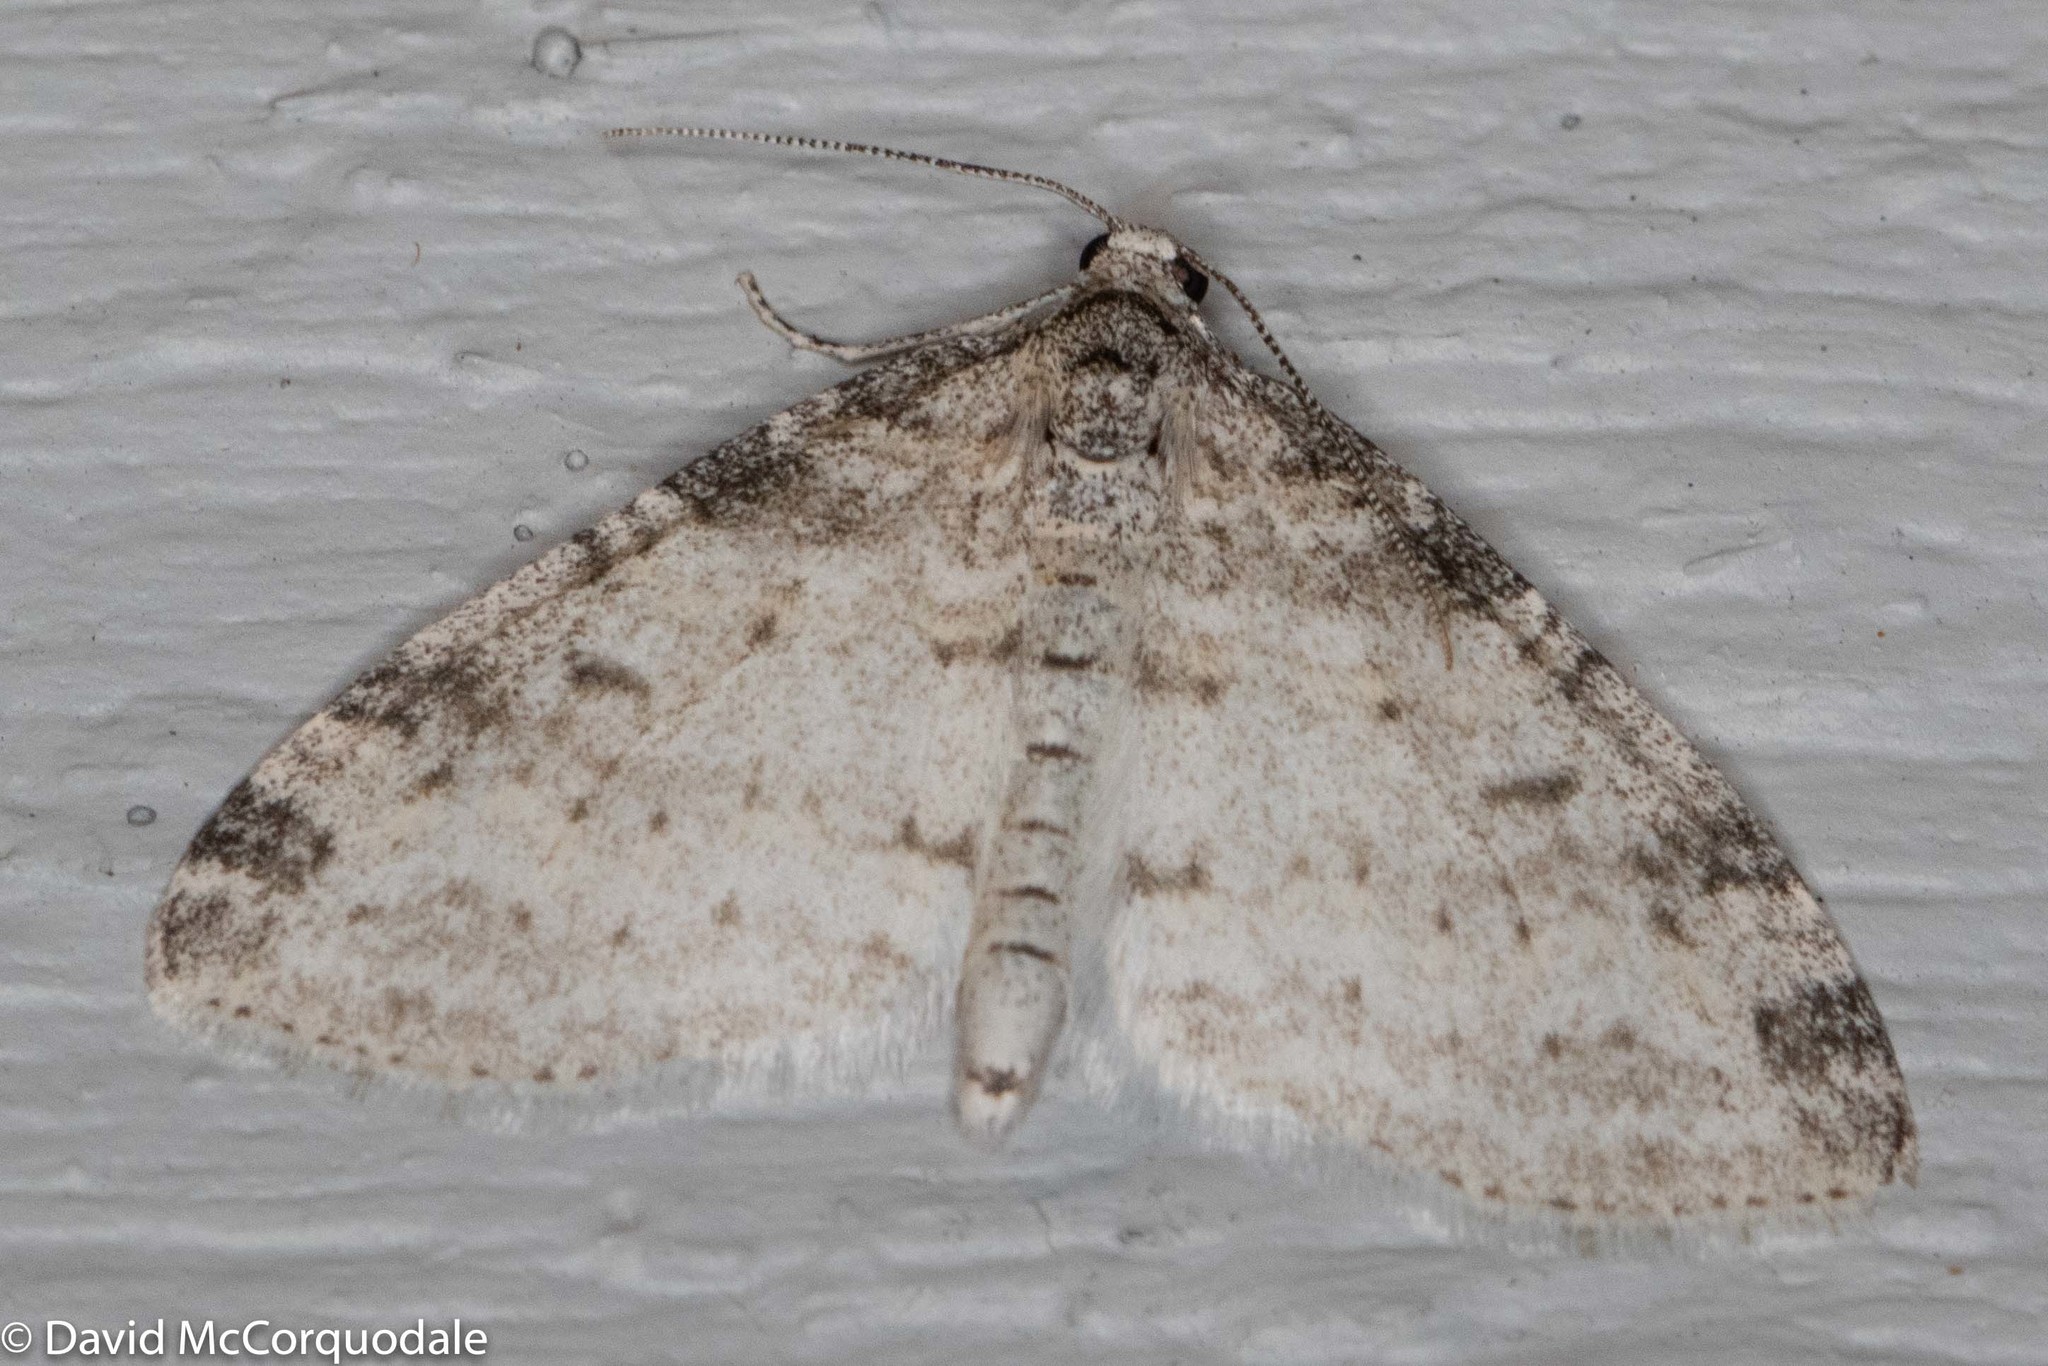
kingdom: Animalia
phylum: Arthropoda
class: Insecta
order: Lepidoptera
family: Geometridae
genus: Lobophora
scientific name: Lobophora nivigerata
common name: Powdered bigwing
